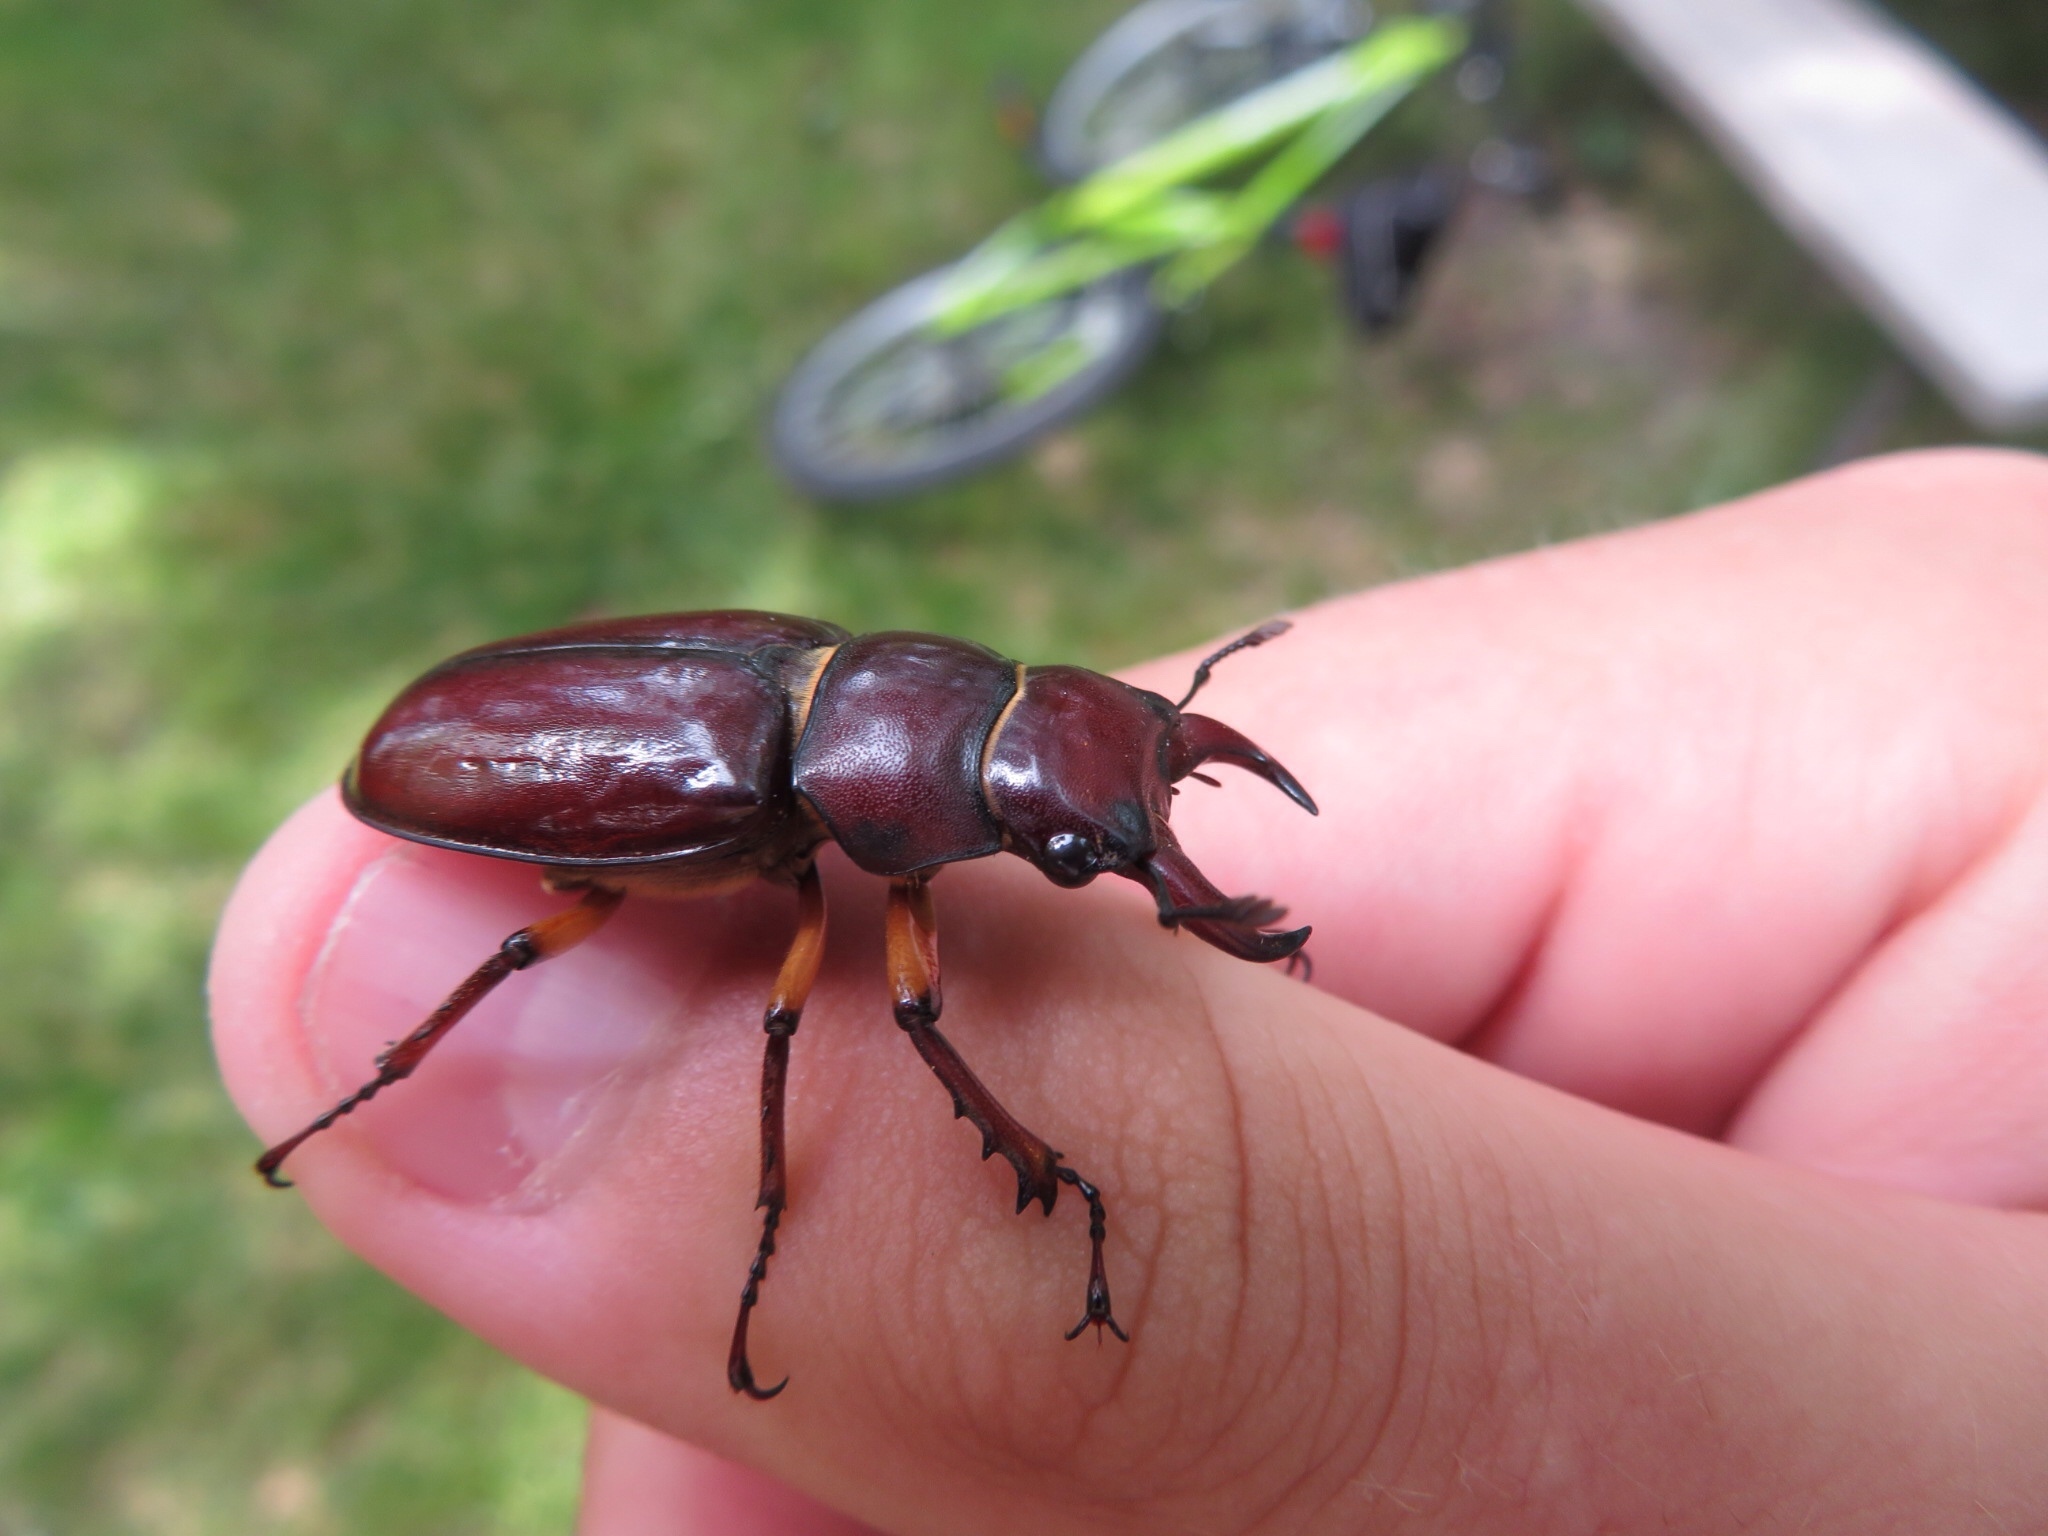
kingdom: Animalia
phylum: Arthropoda
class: Insecta
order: Coleoptera
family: Lucanidae
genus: Lucanus
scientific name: Lucanus capreolus
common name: Stag beetle
